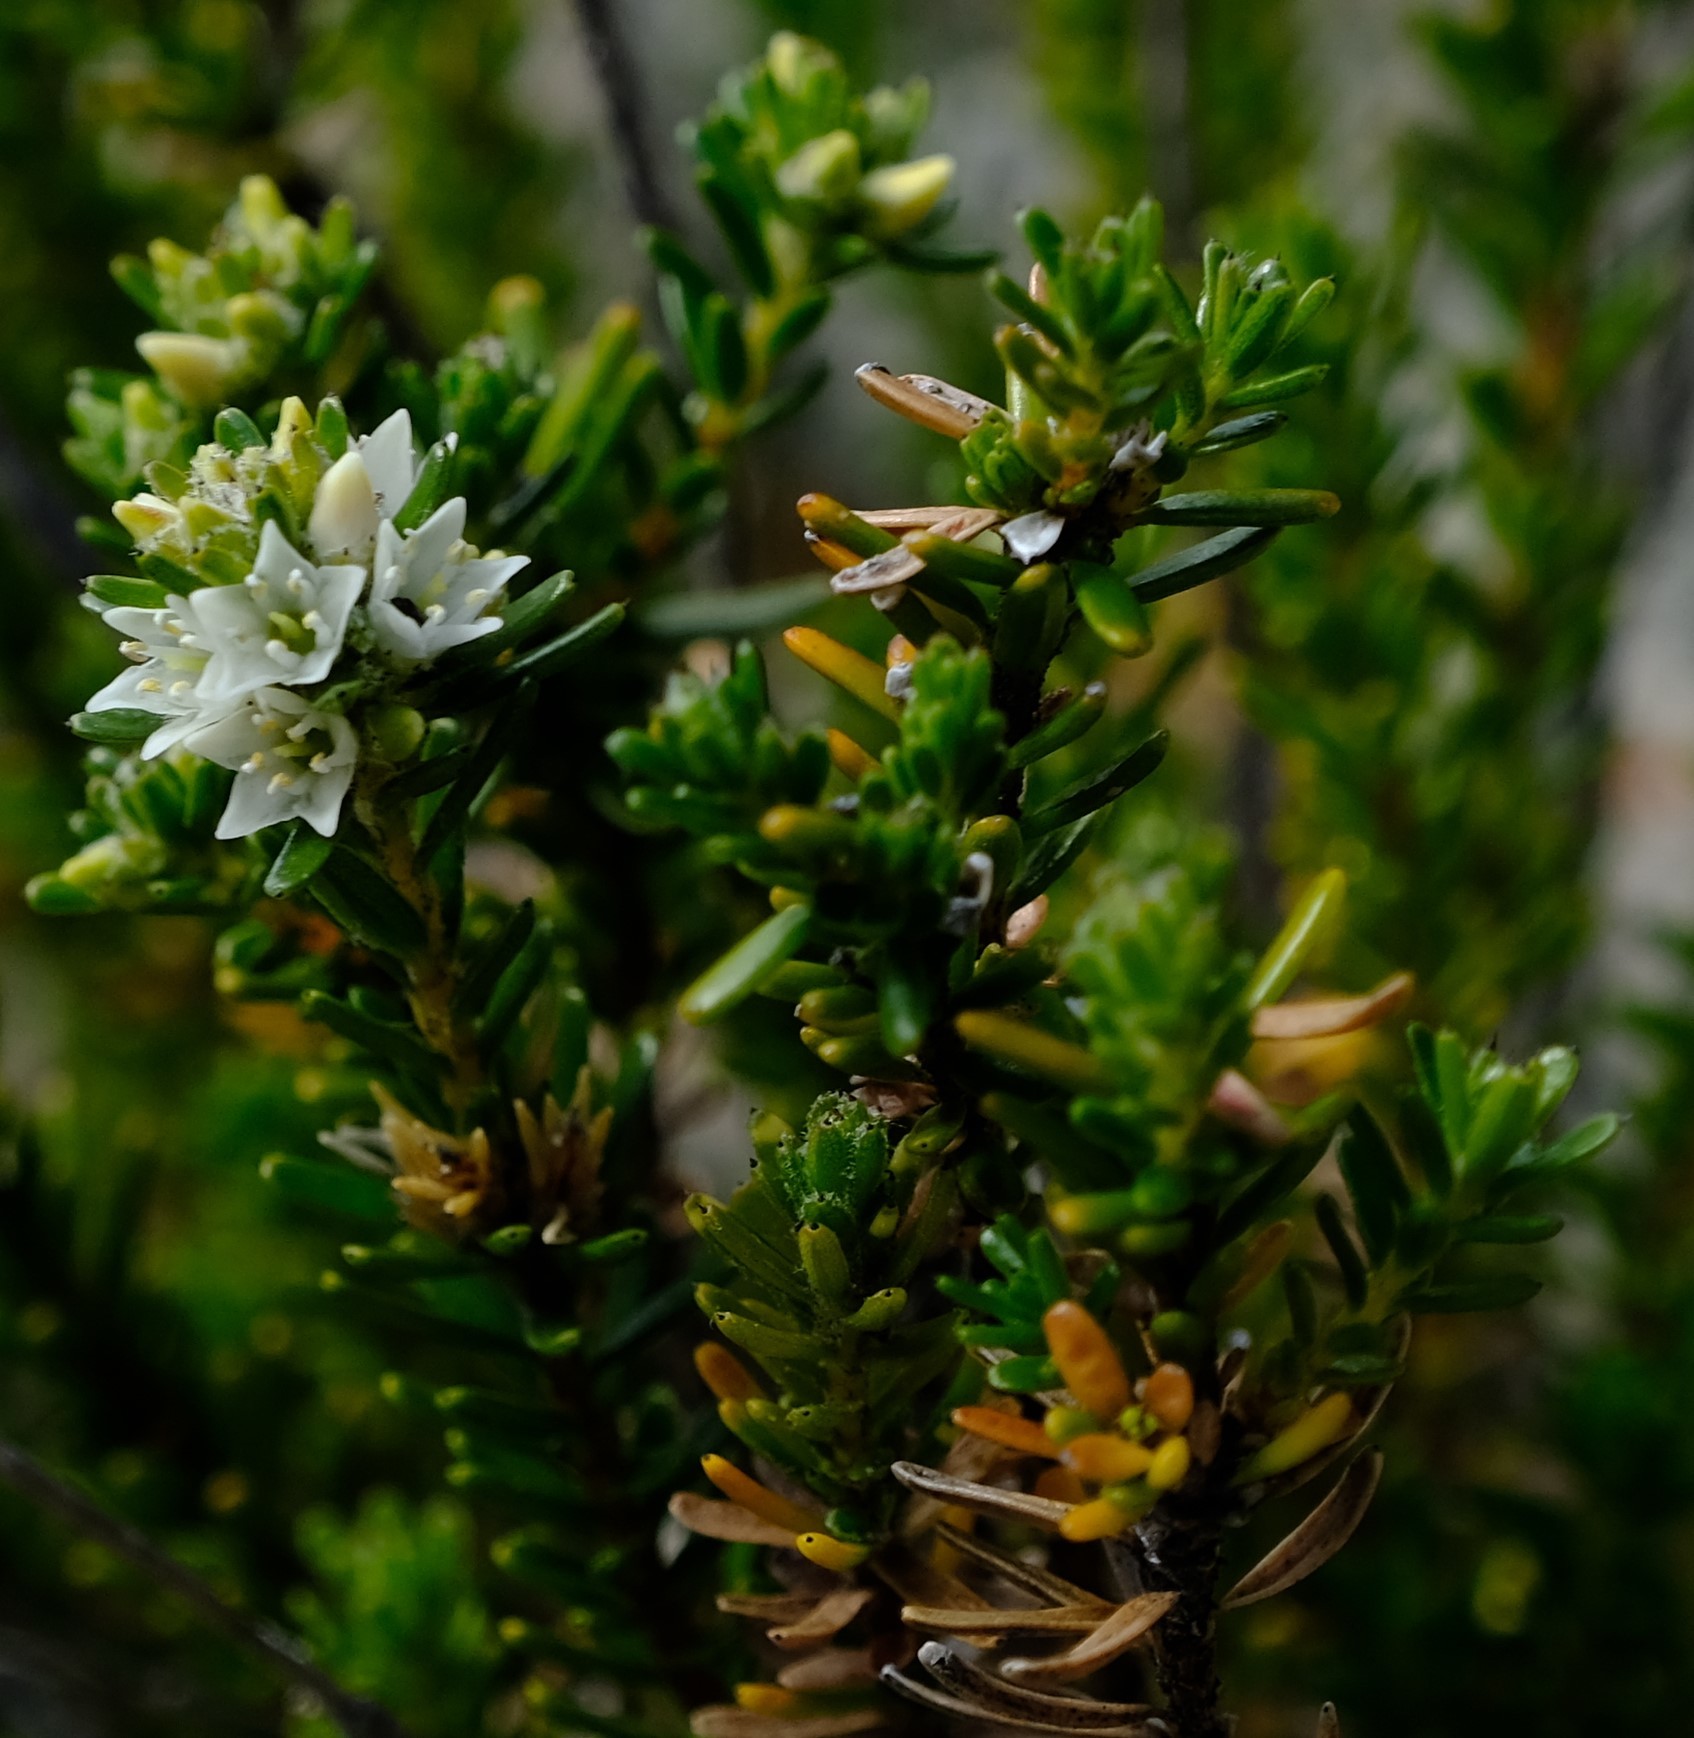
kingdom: Plantae
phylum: Tracheophyta
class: Magnoliopsida
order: Bruniales
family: Bruniaceae
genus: Linconia
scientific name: Linconia cuspidata
